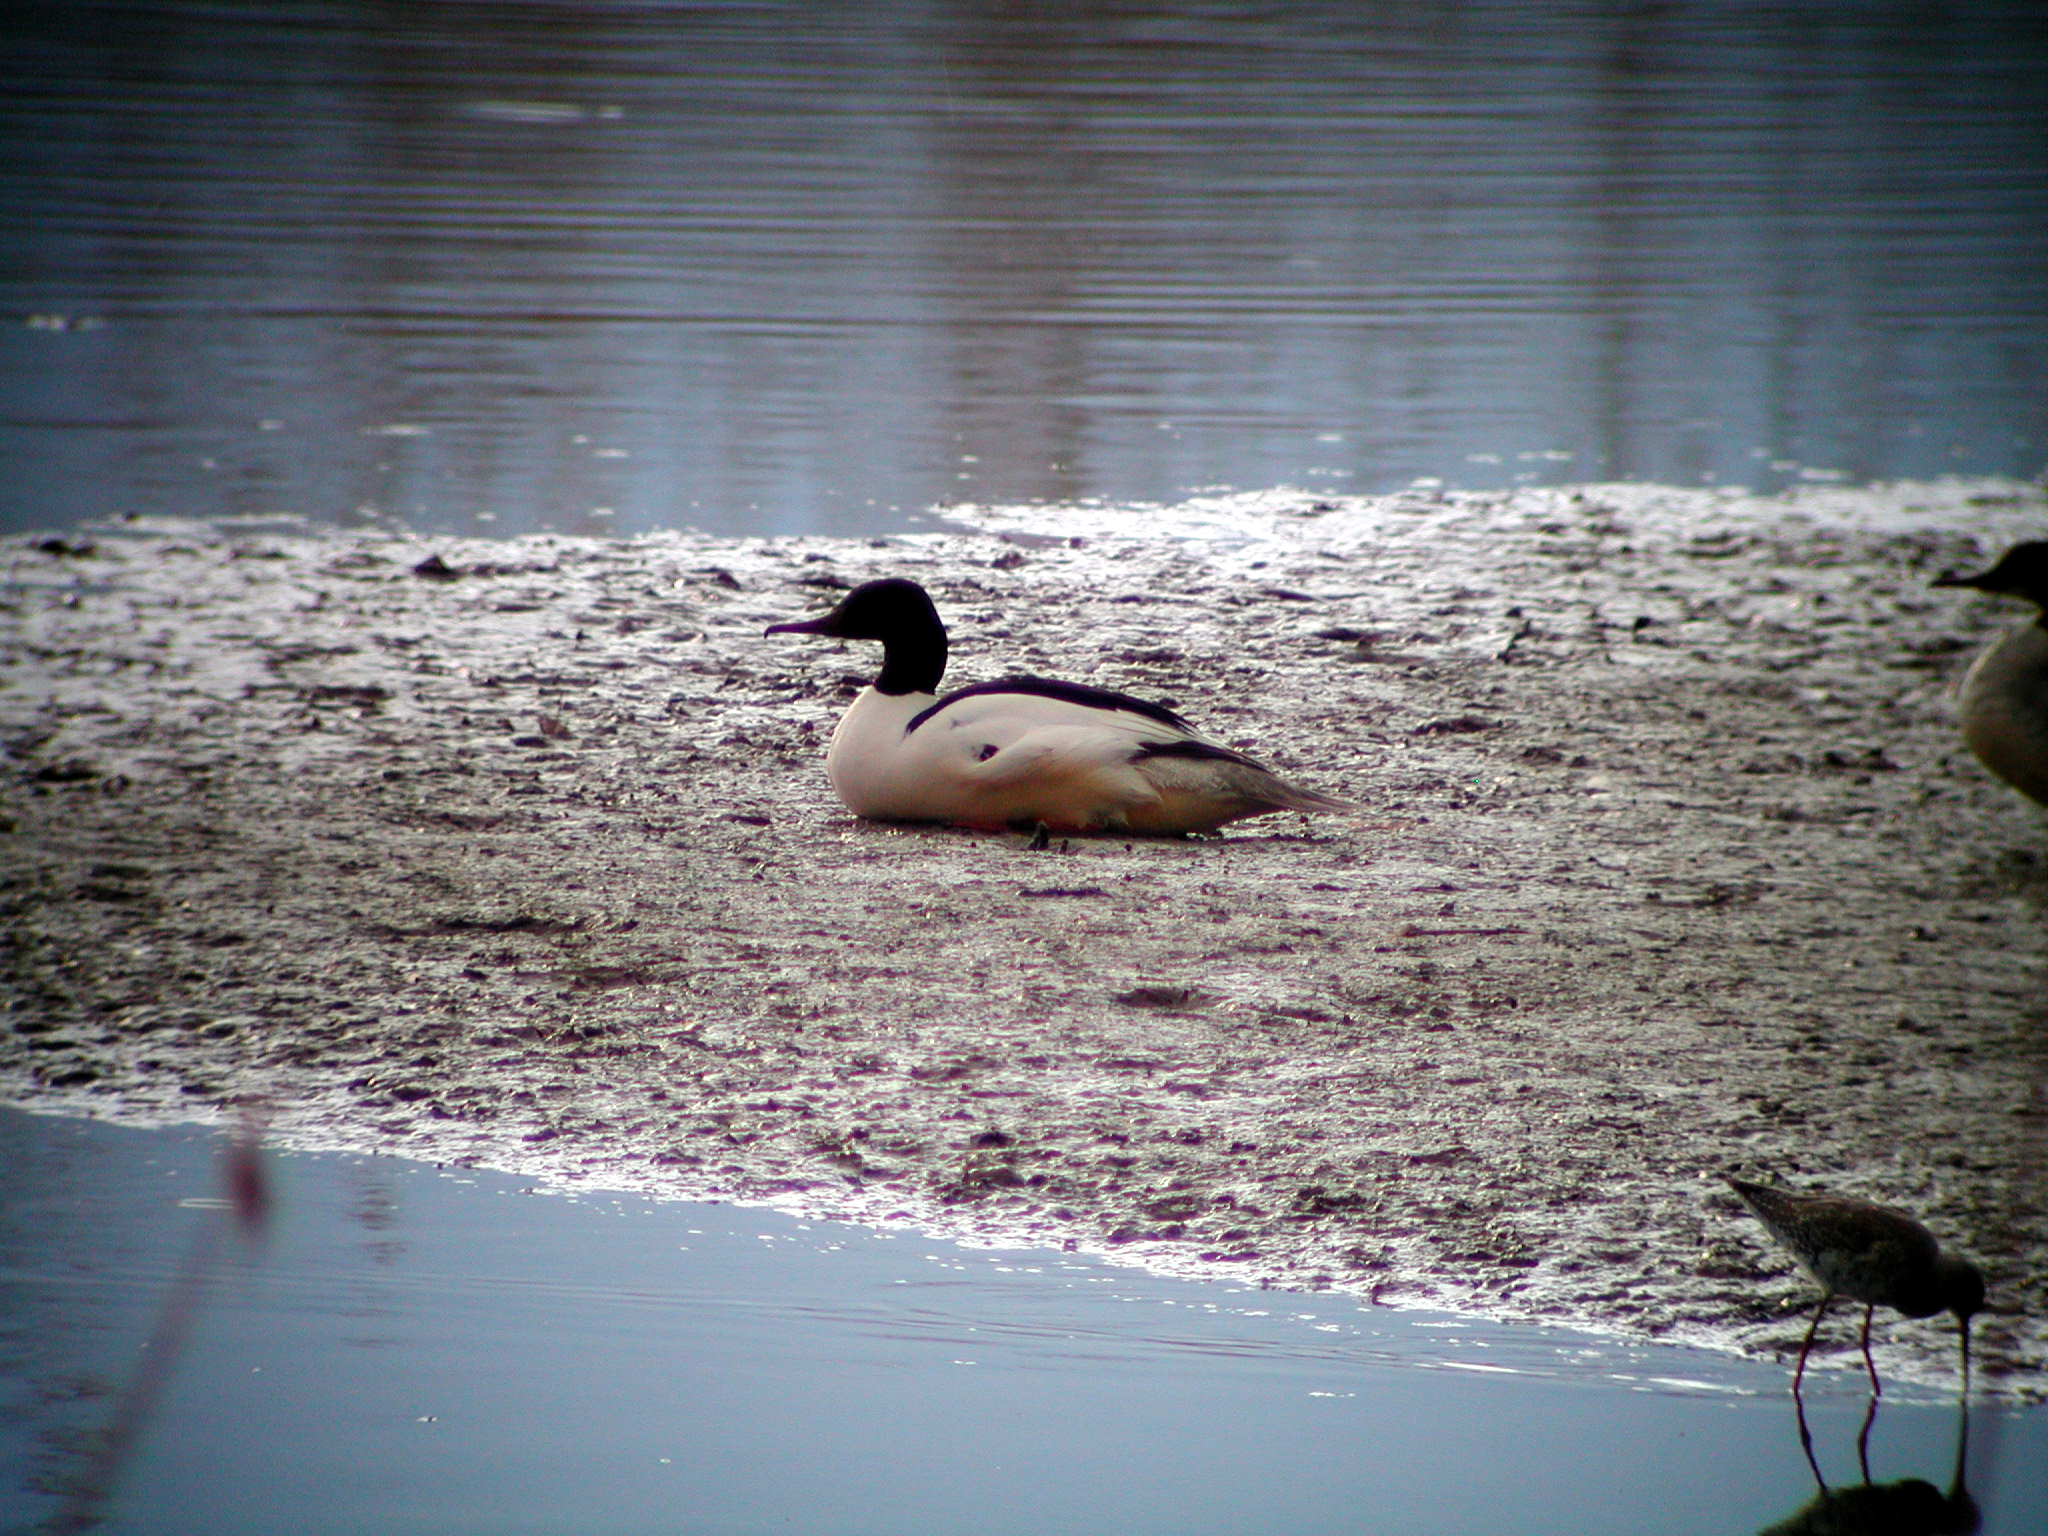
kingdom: Animalia
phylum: Chordata
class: Aves
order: Anseriformes
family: Anatidae
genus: Mergus
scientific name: Mergus merganser
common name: Common merganser
